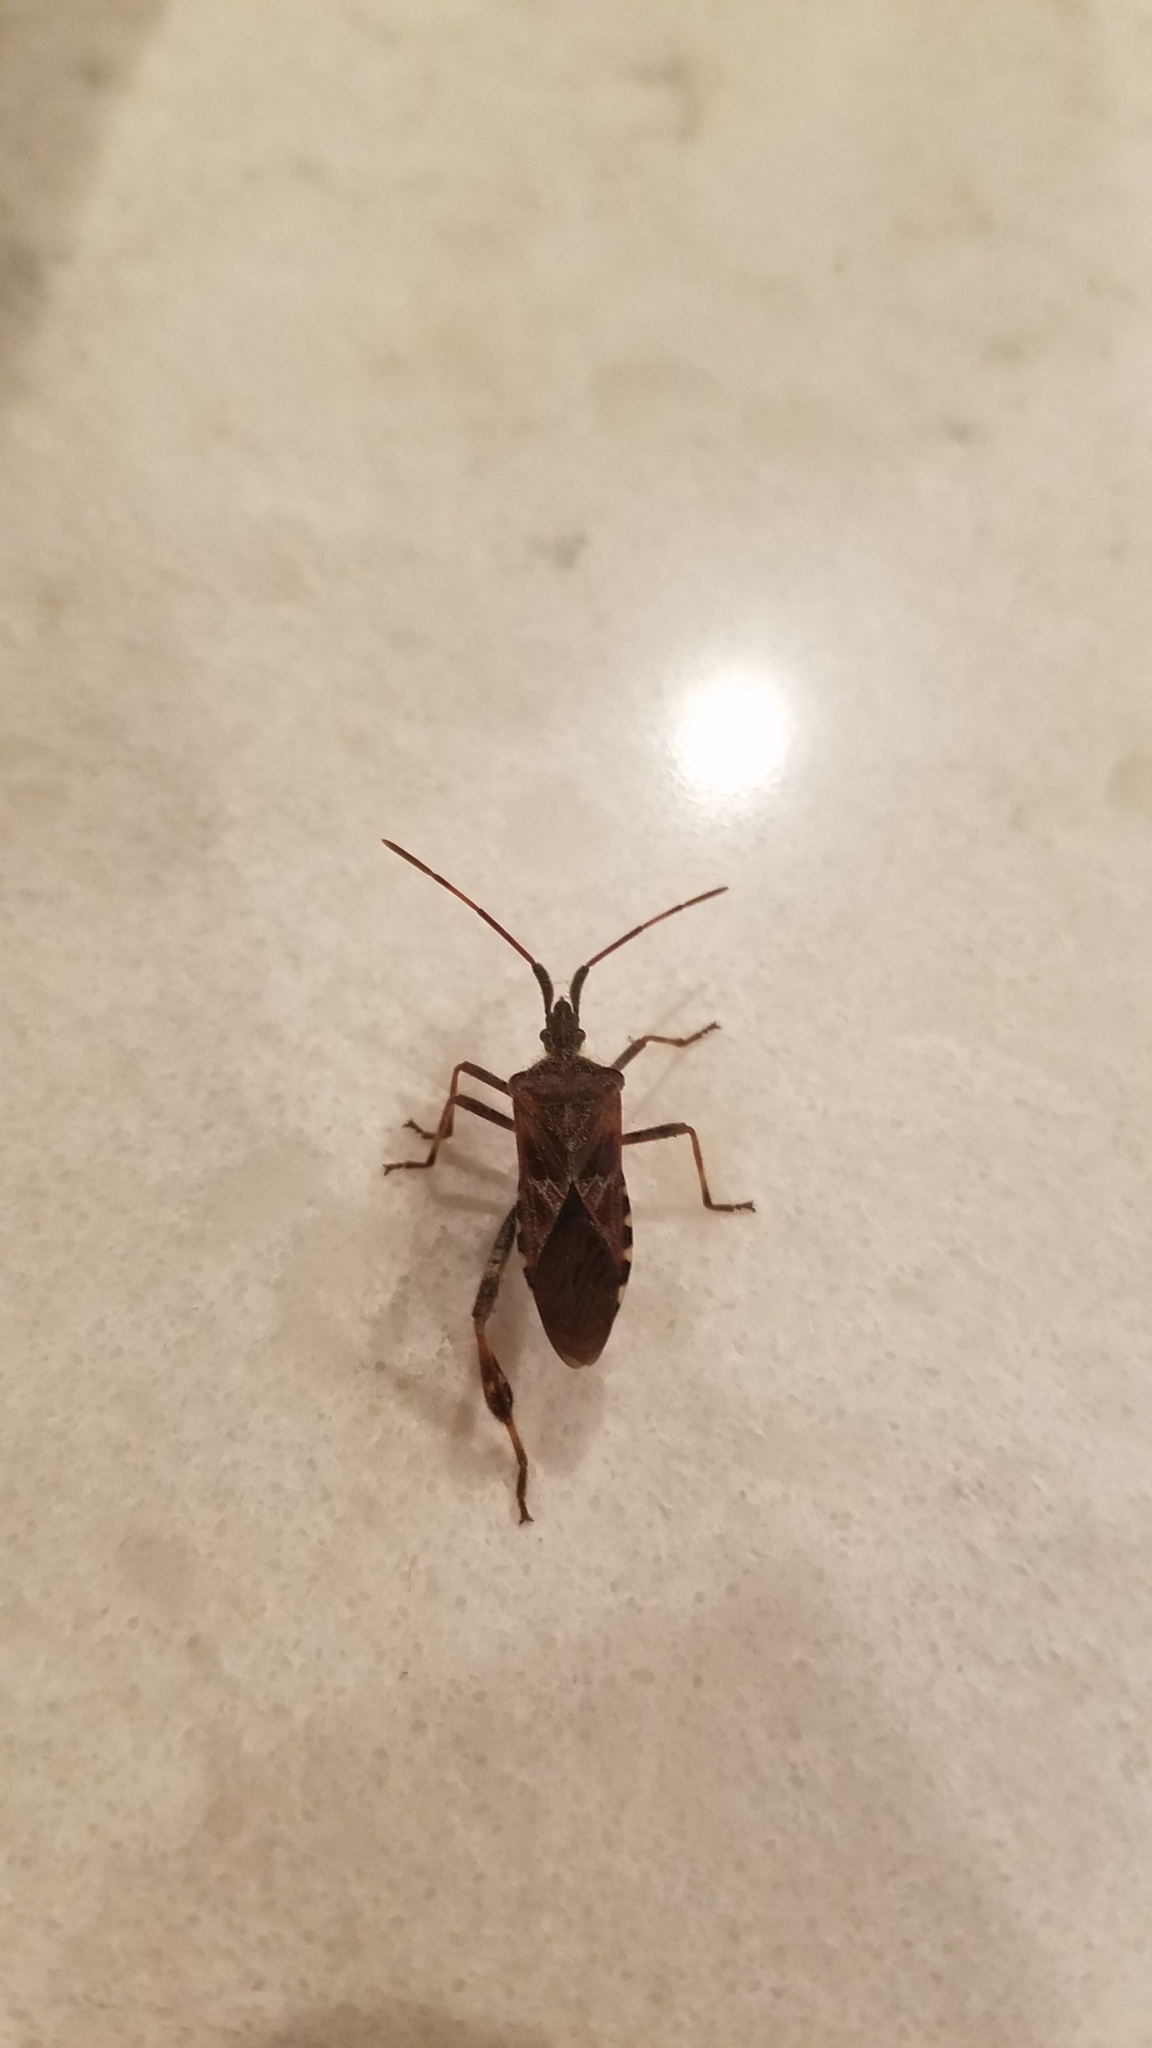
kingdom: Animalia
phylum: Arthropoda
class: Insecta
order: Hemiptera
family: Coreidae
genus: Leptoglossus
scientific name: Leptoglossus occidentalis
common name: Western conifer-seed bug
